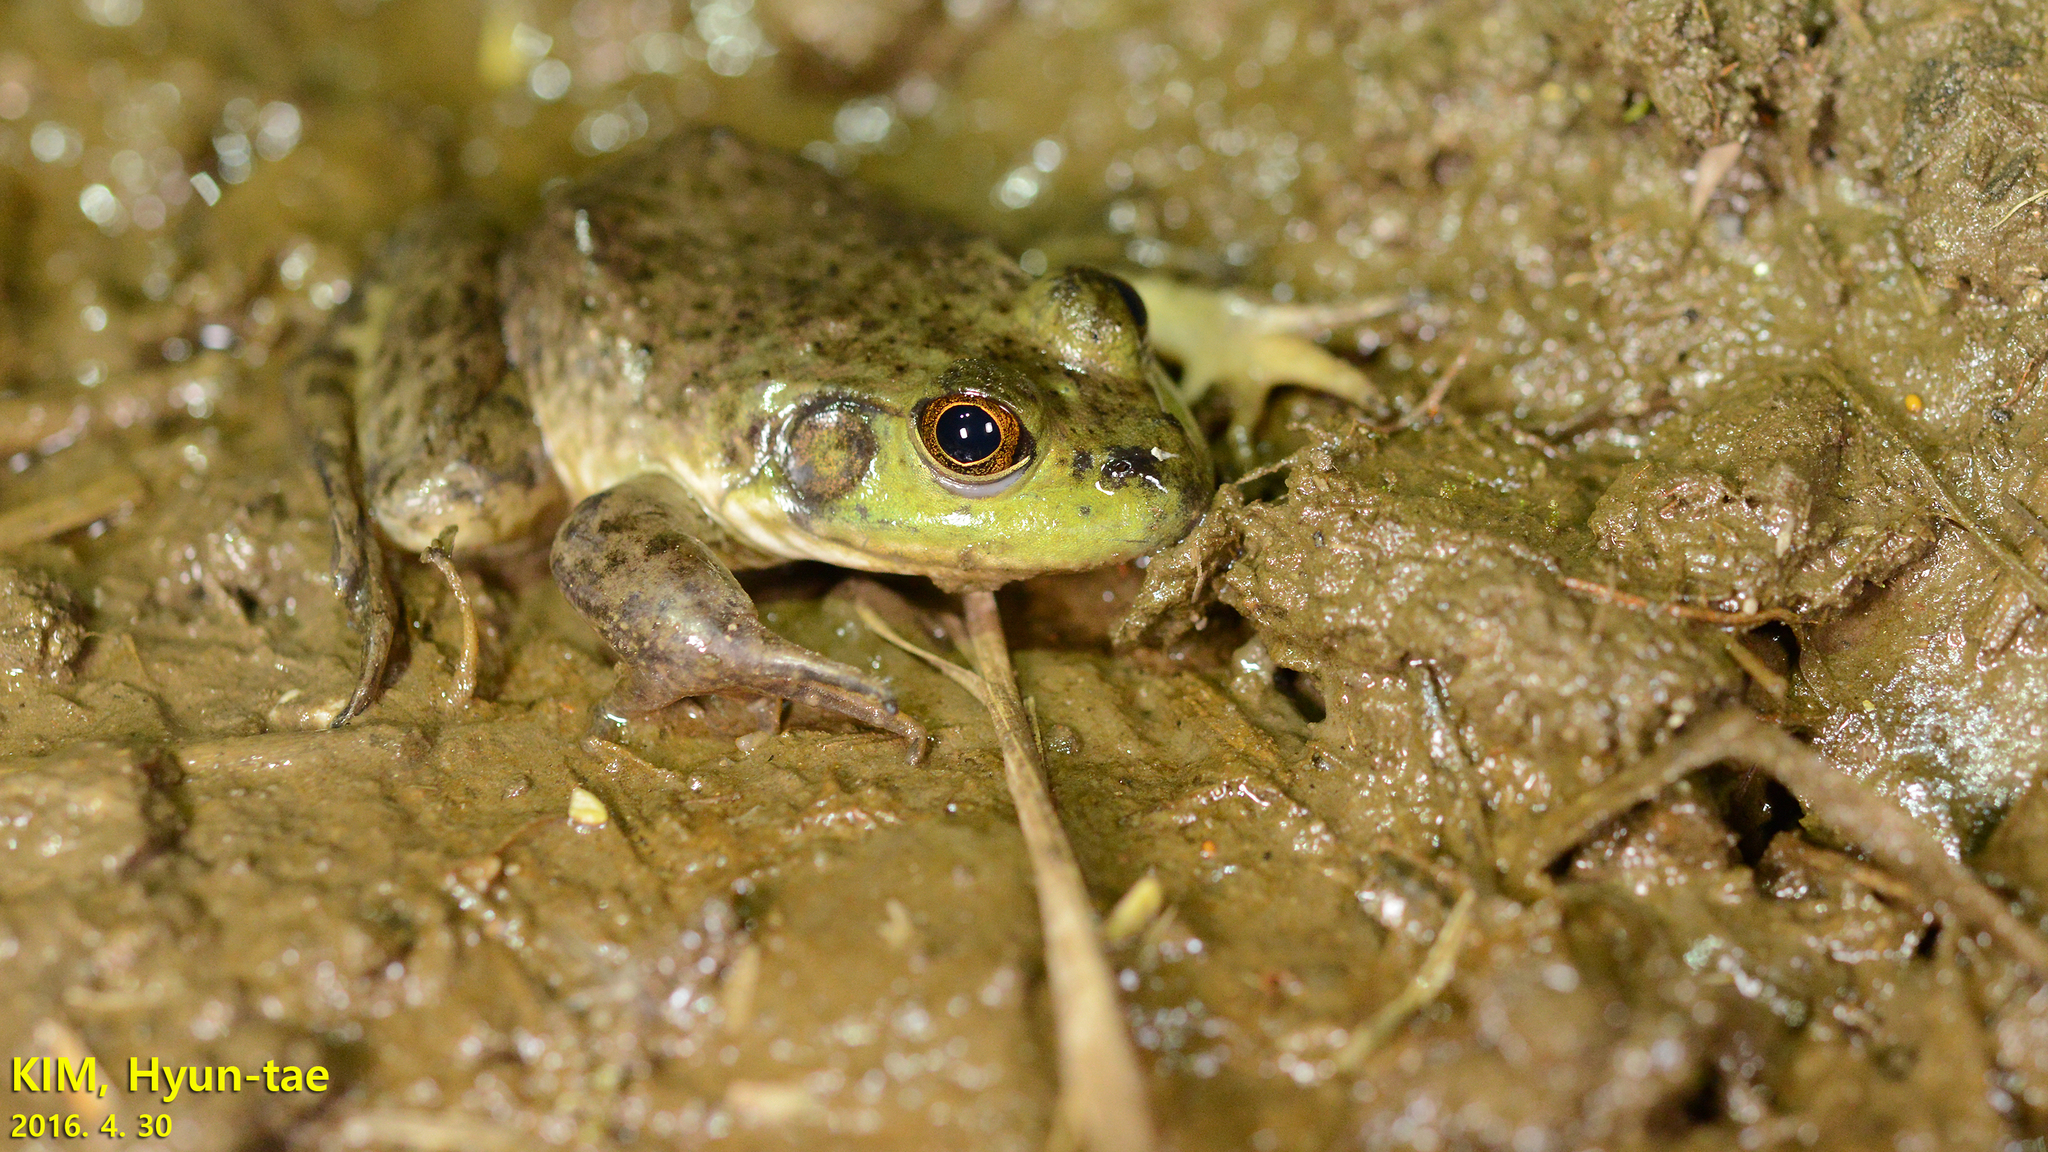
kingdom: Animalia
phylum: Chordata
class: Amphibia
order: Anura
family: Ranidae
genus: Lithobates
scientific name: Lithobates catesbeianus
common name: American bullfrog
